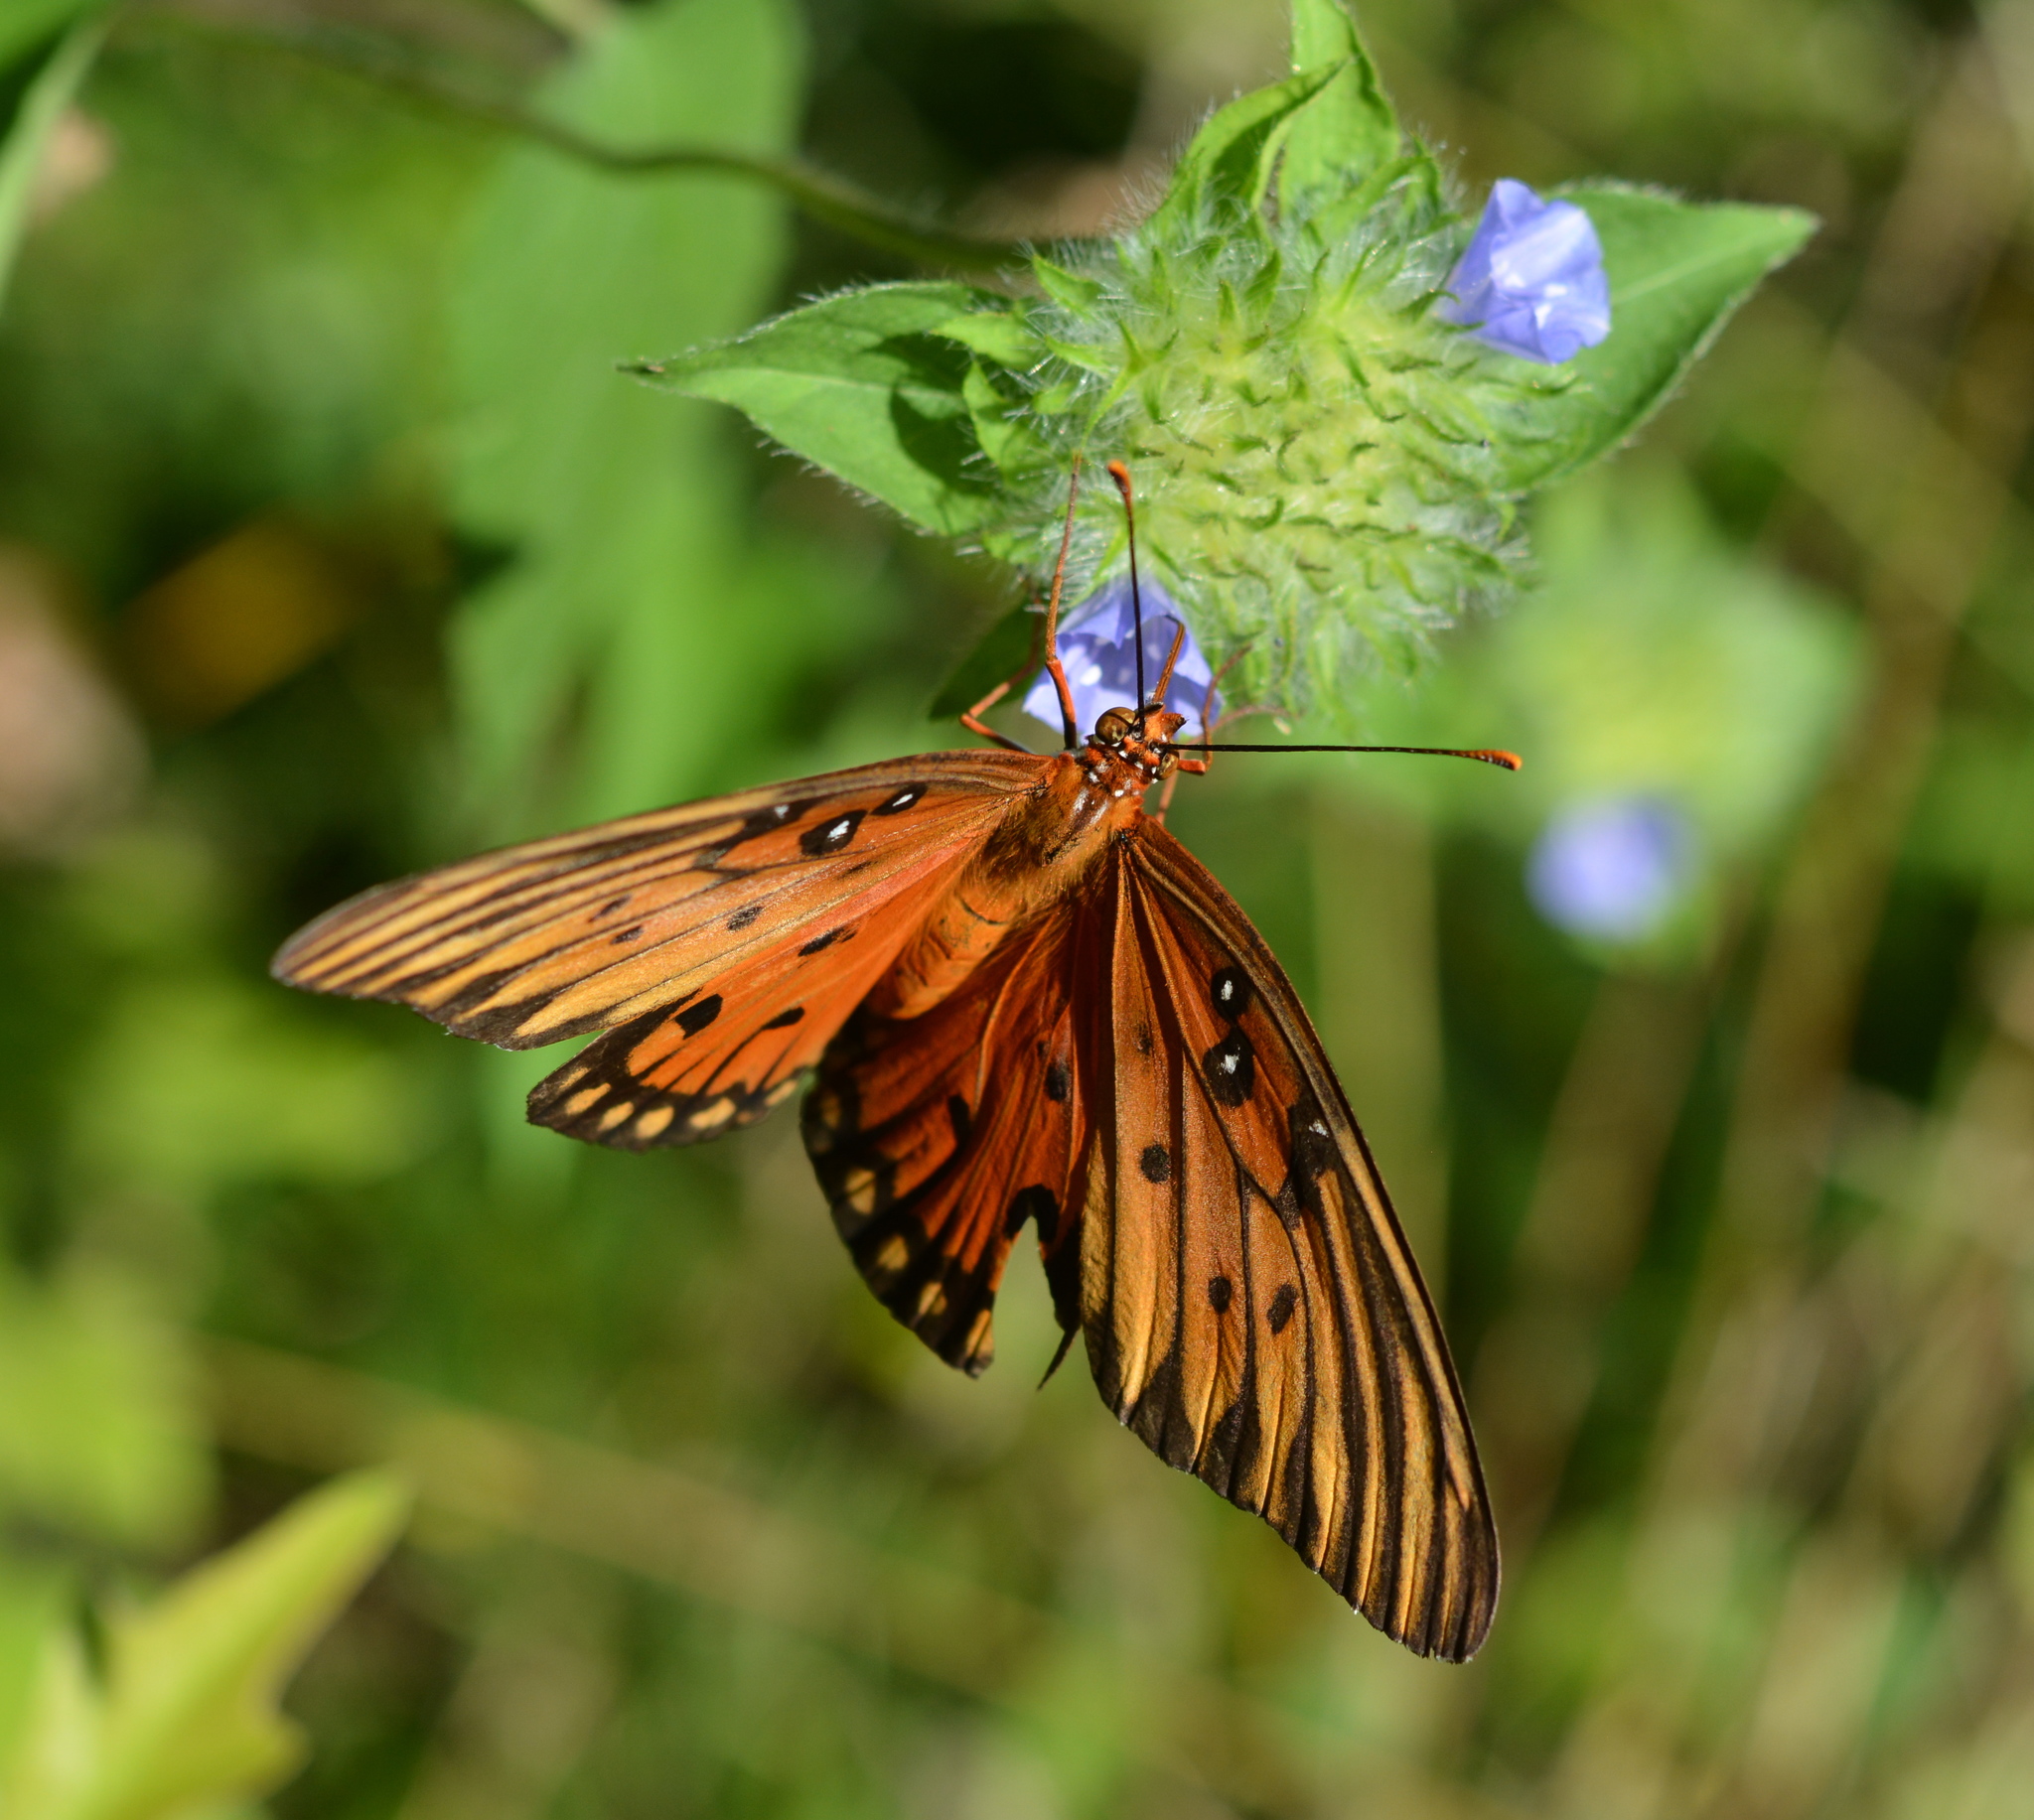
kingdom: Animalia
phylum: Arthropoda
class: Insecta
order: Lepidoptera
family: Nymphalidae
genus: Dione
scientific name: Dione vanillae
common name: Gulf fritillary
